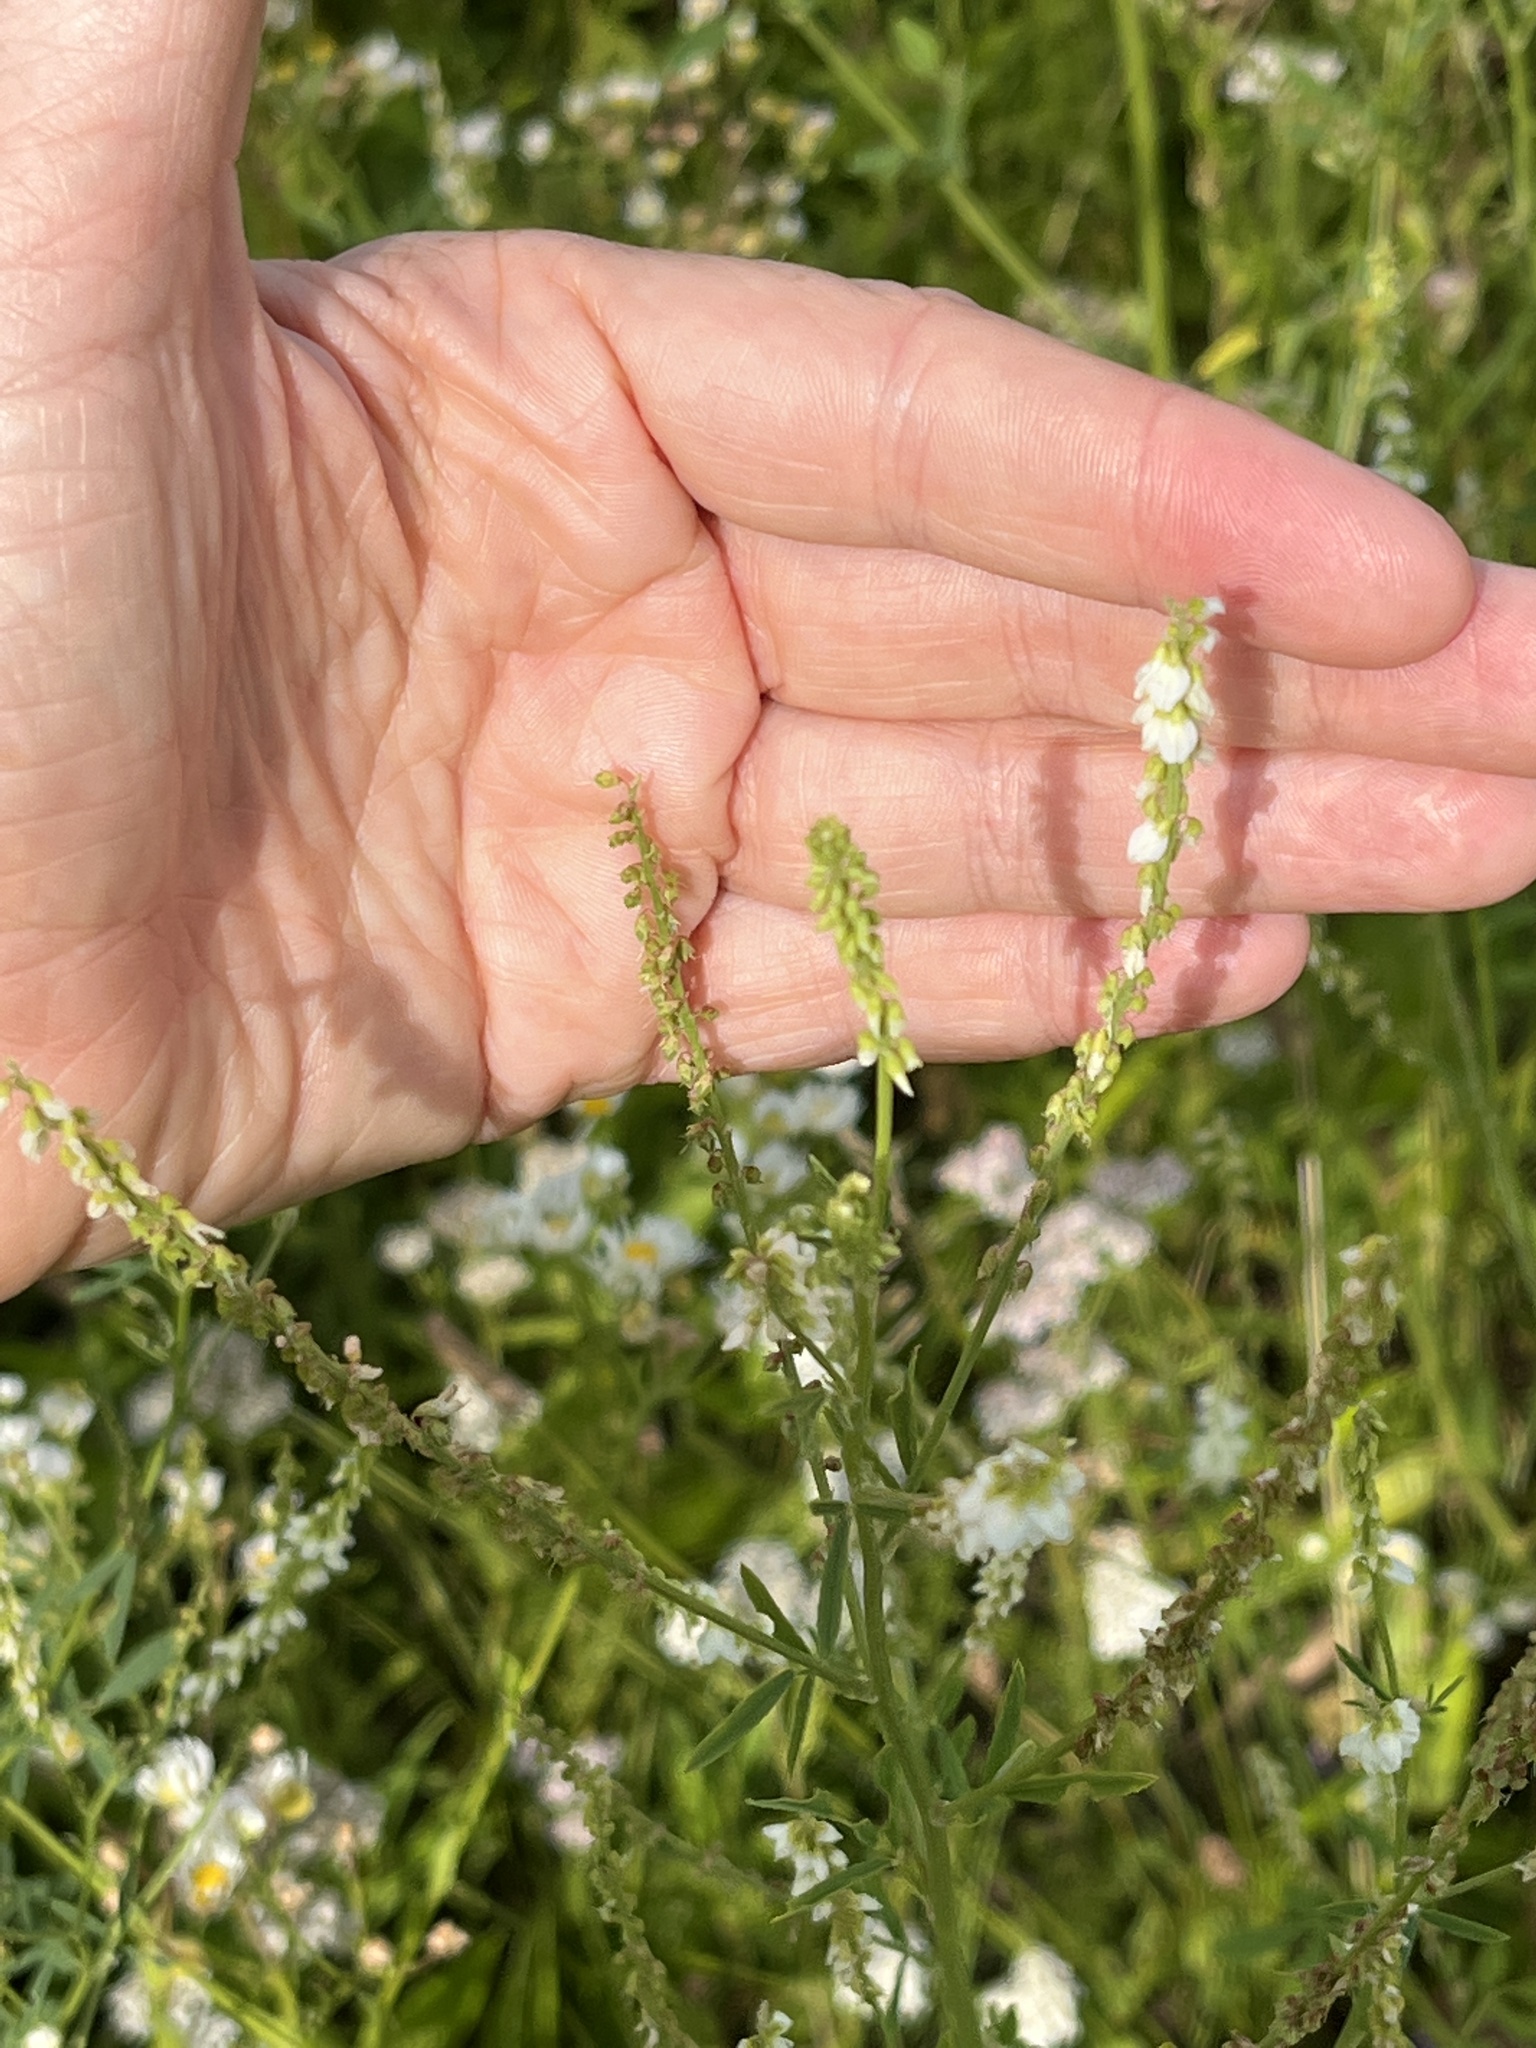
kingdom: Plantae
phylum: Tracheophyta
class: Magnoliopsida
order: Fabales
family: Fabaceae
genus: Melilotus
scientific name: Melilotus albus
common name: White melilot
